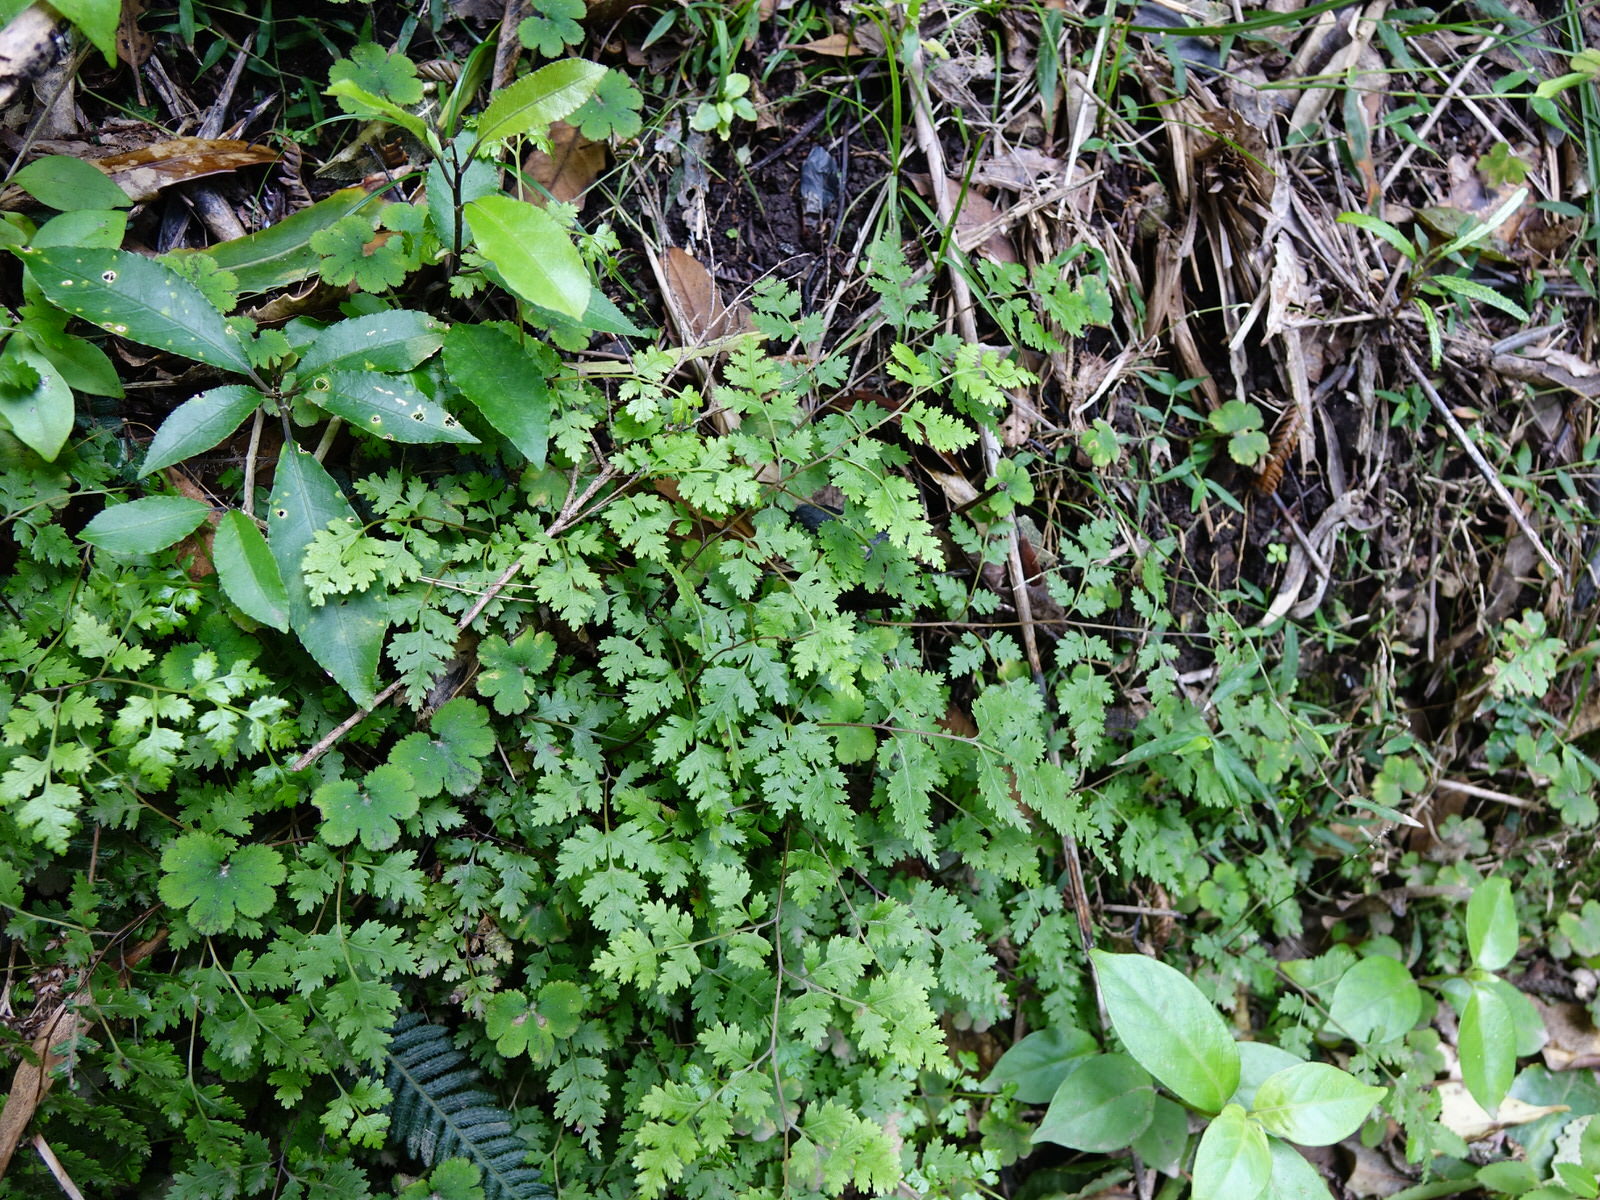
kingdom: Plantae
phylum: Tracheophyta
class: Polypodiopsida
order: Polypodiales
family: Pteridaceae
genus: Pteris
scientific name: Pteris saxatilis
